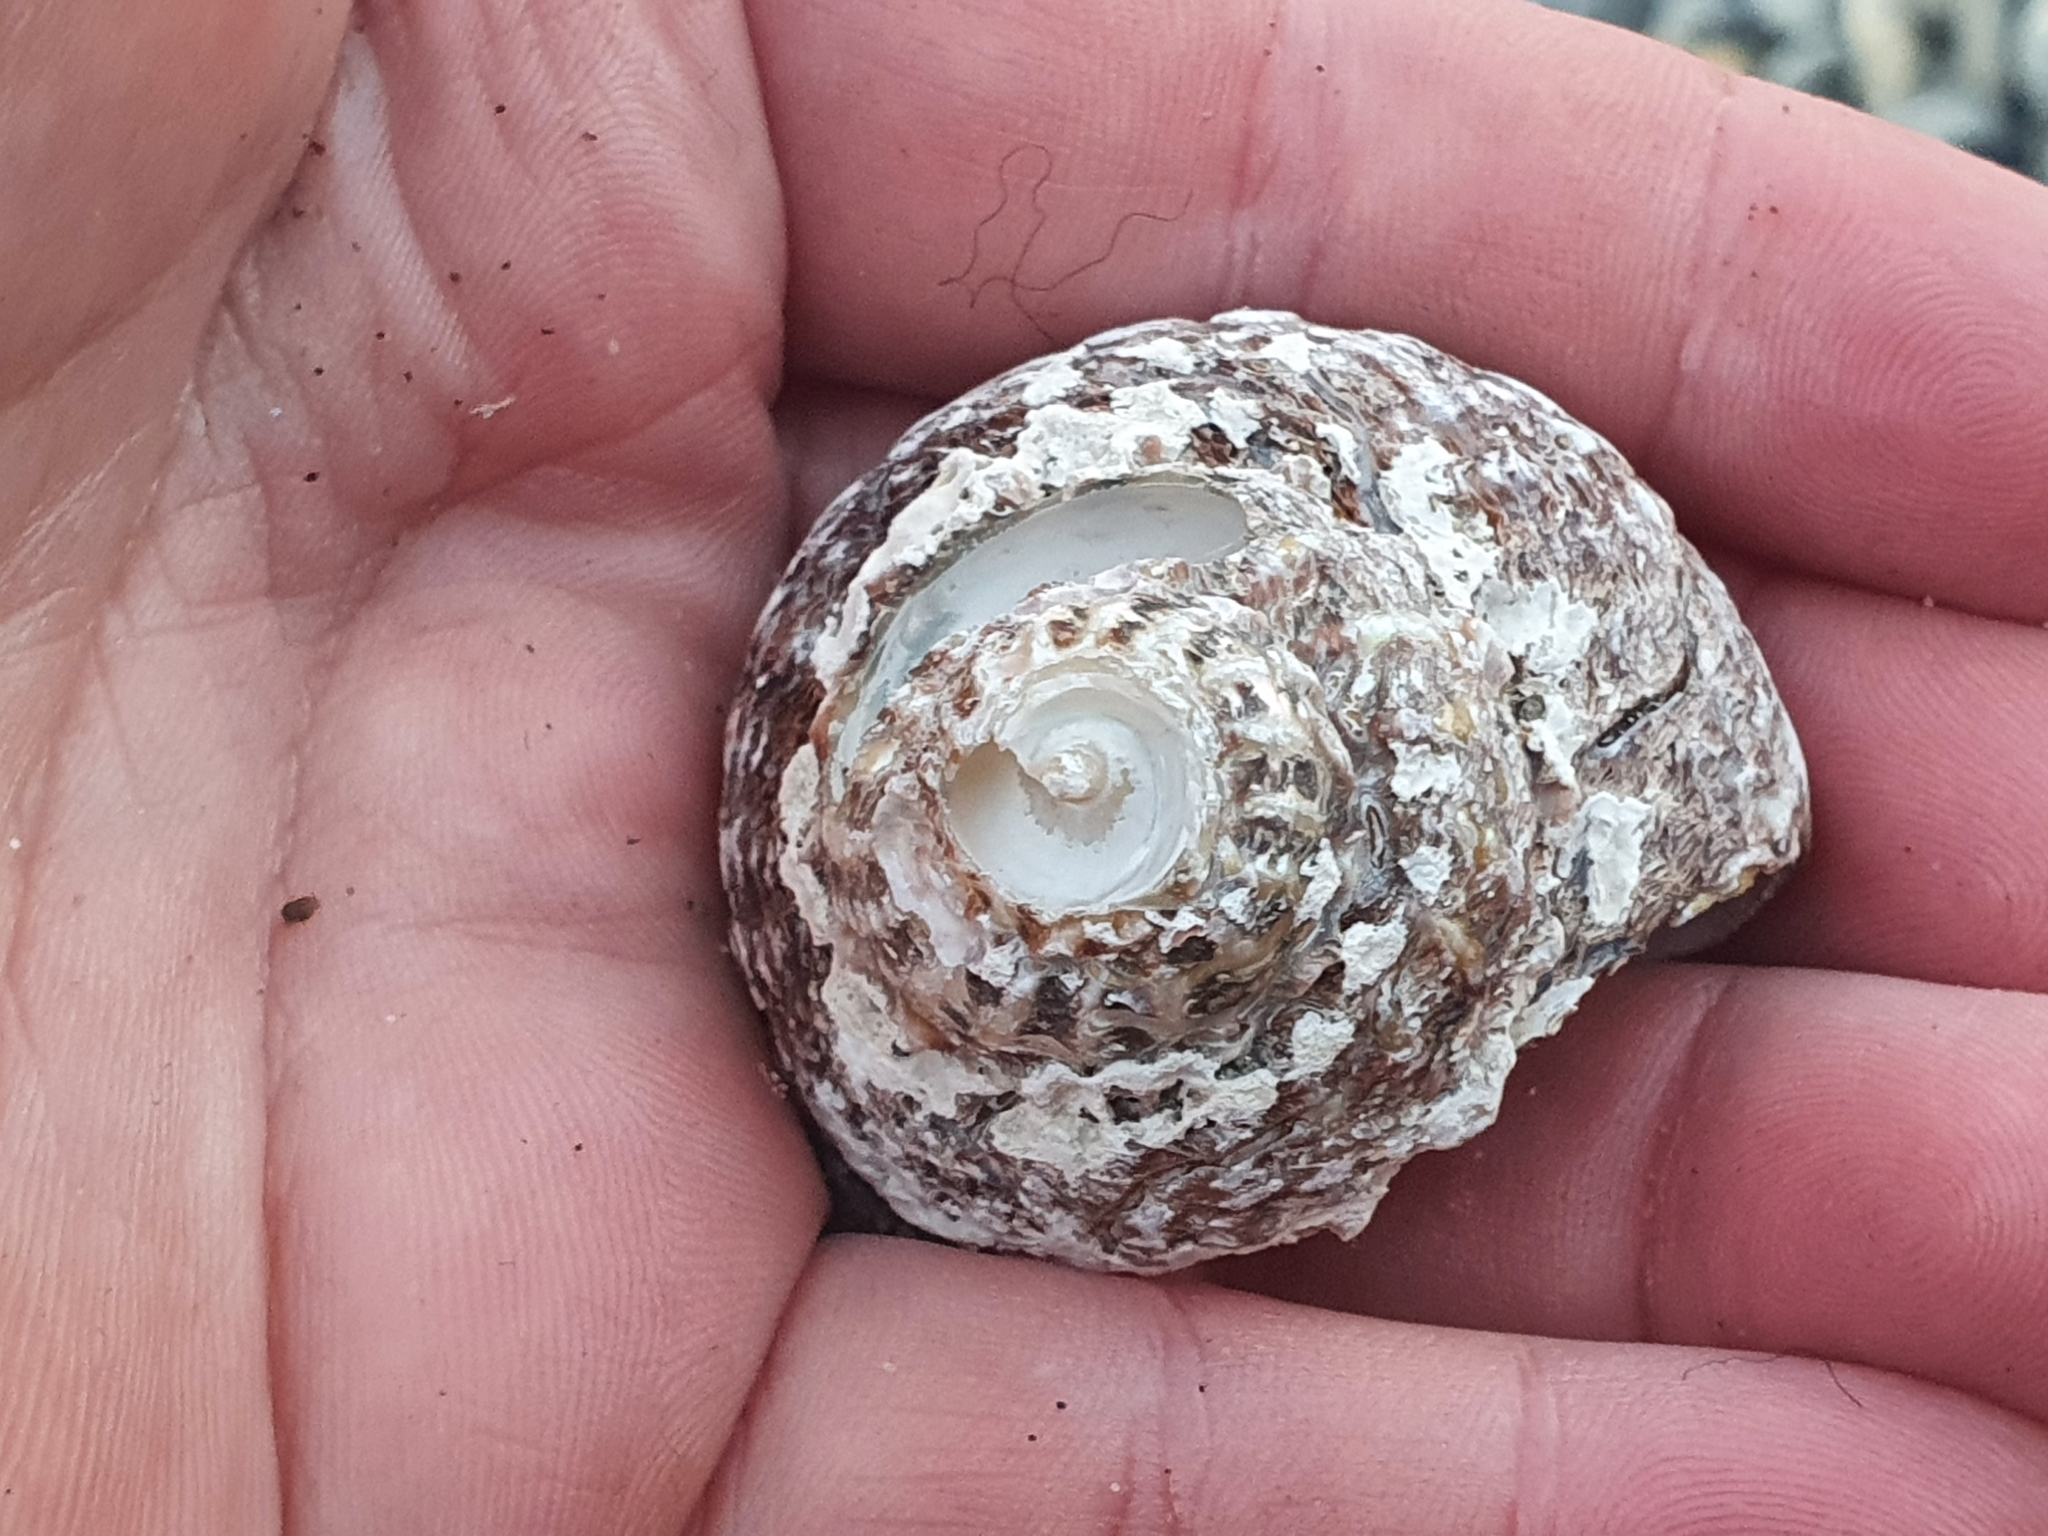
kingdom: Animalia
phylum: Mollusca
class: Gastropoda
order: Trochida
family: Turbinidae
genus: Cookia
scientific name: Cookia sulcata
